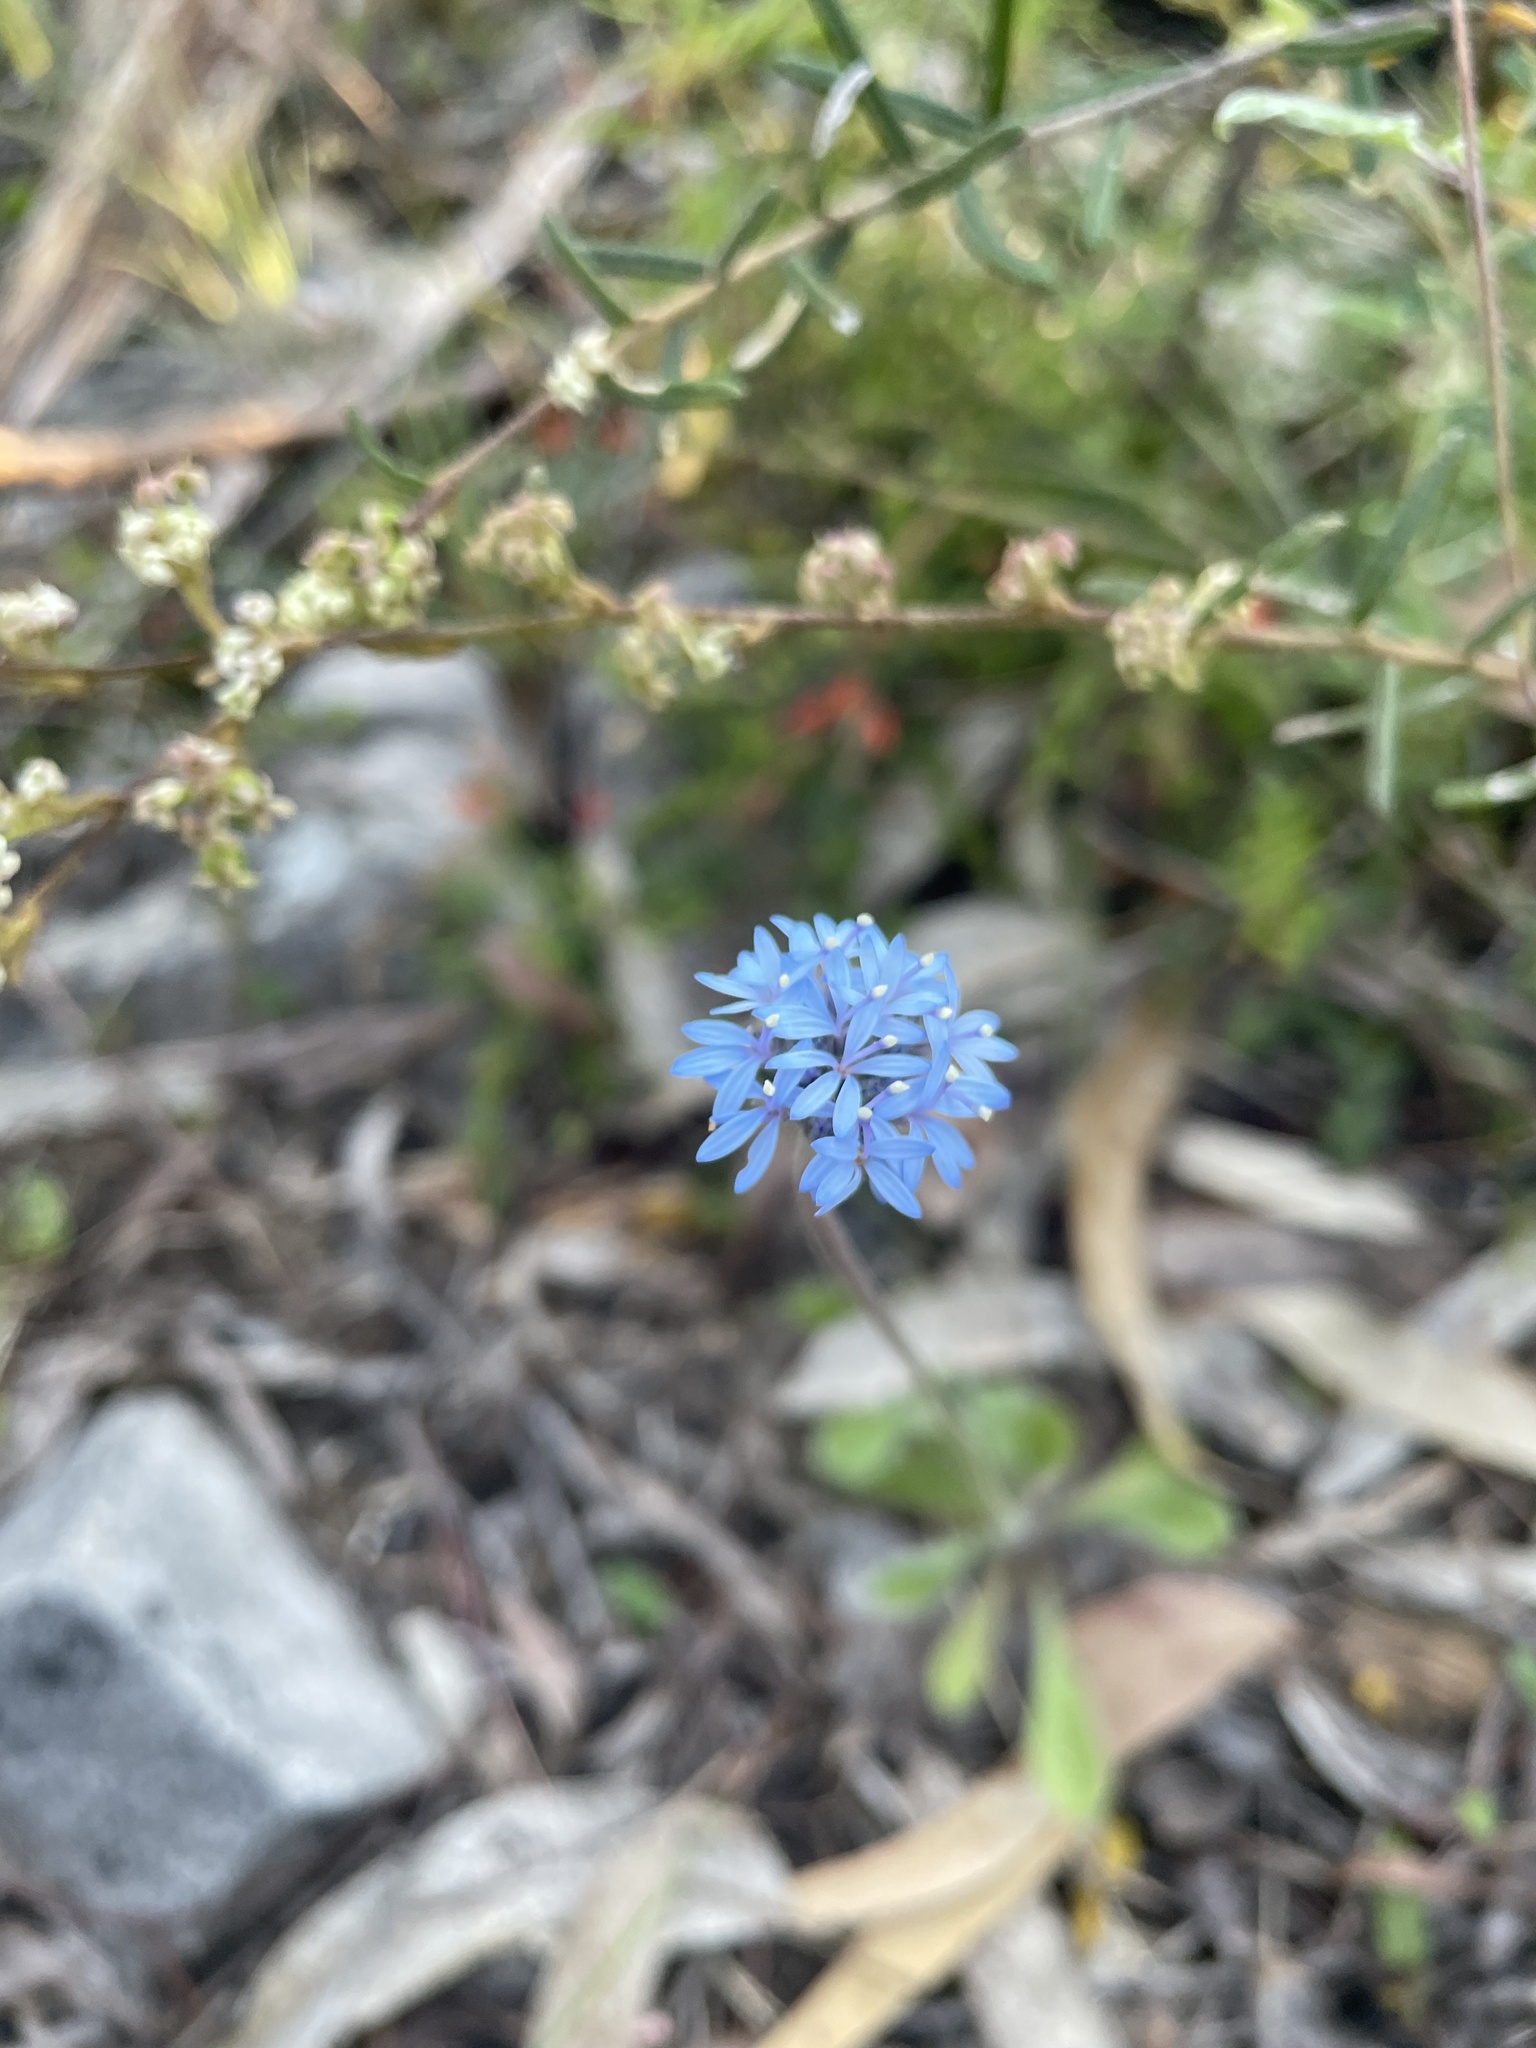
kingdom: Plantae
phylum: Tracheophyta
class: Magnoliopsida
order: Asterales
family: Goodeniaceae
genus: Brunonia
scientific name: Brunonia australis
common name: Blue pincushion
